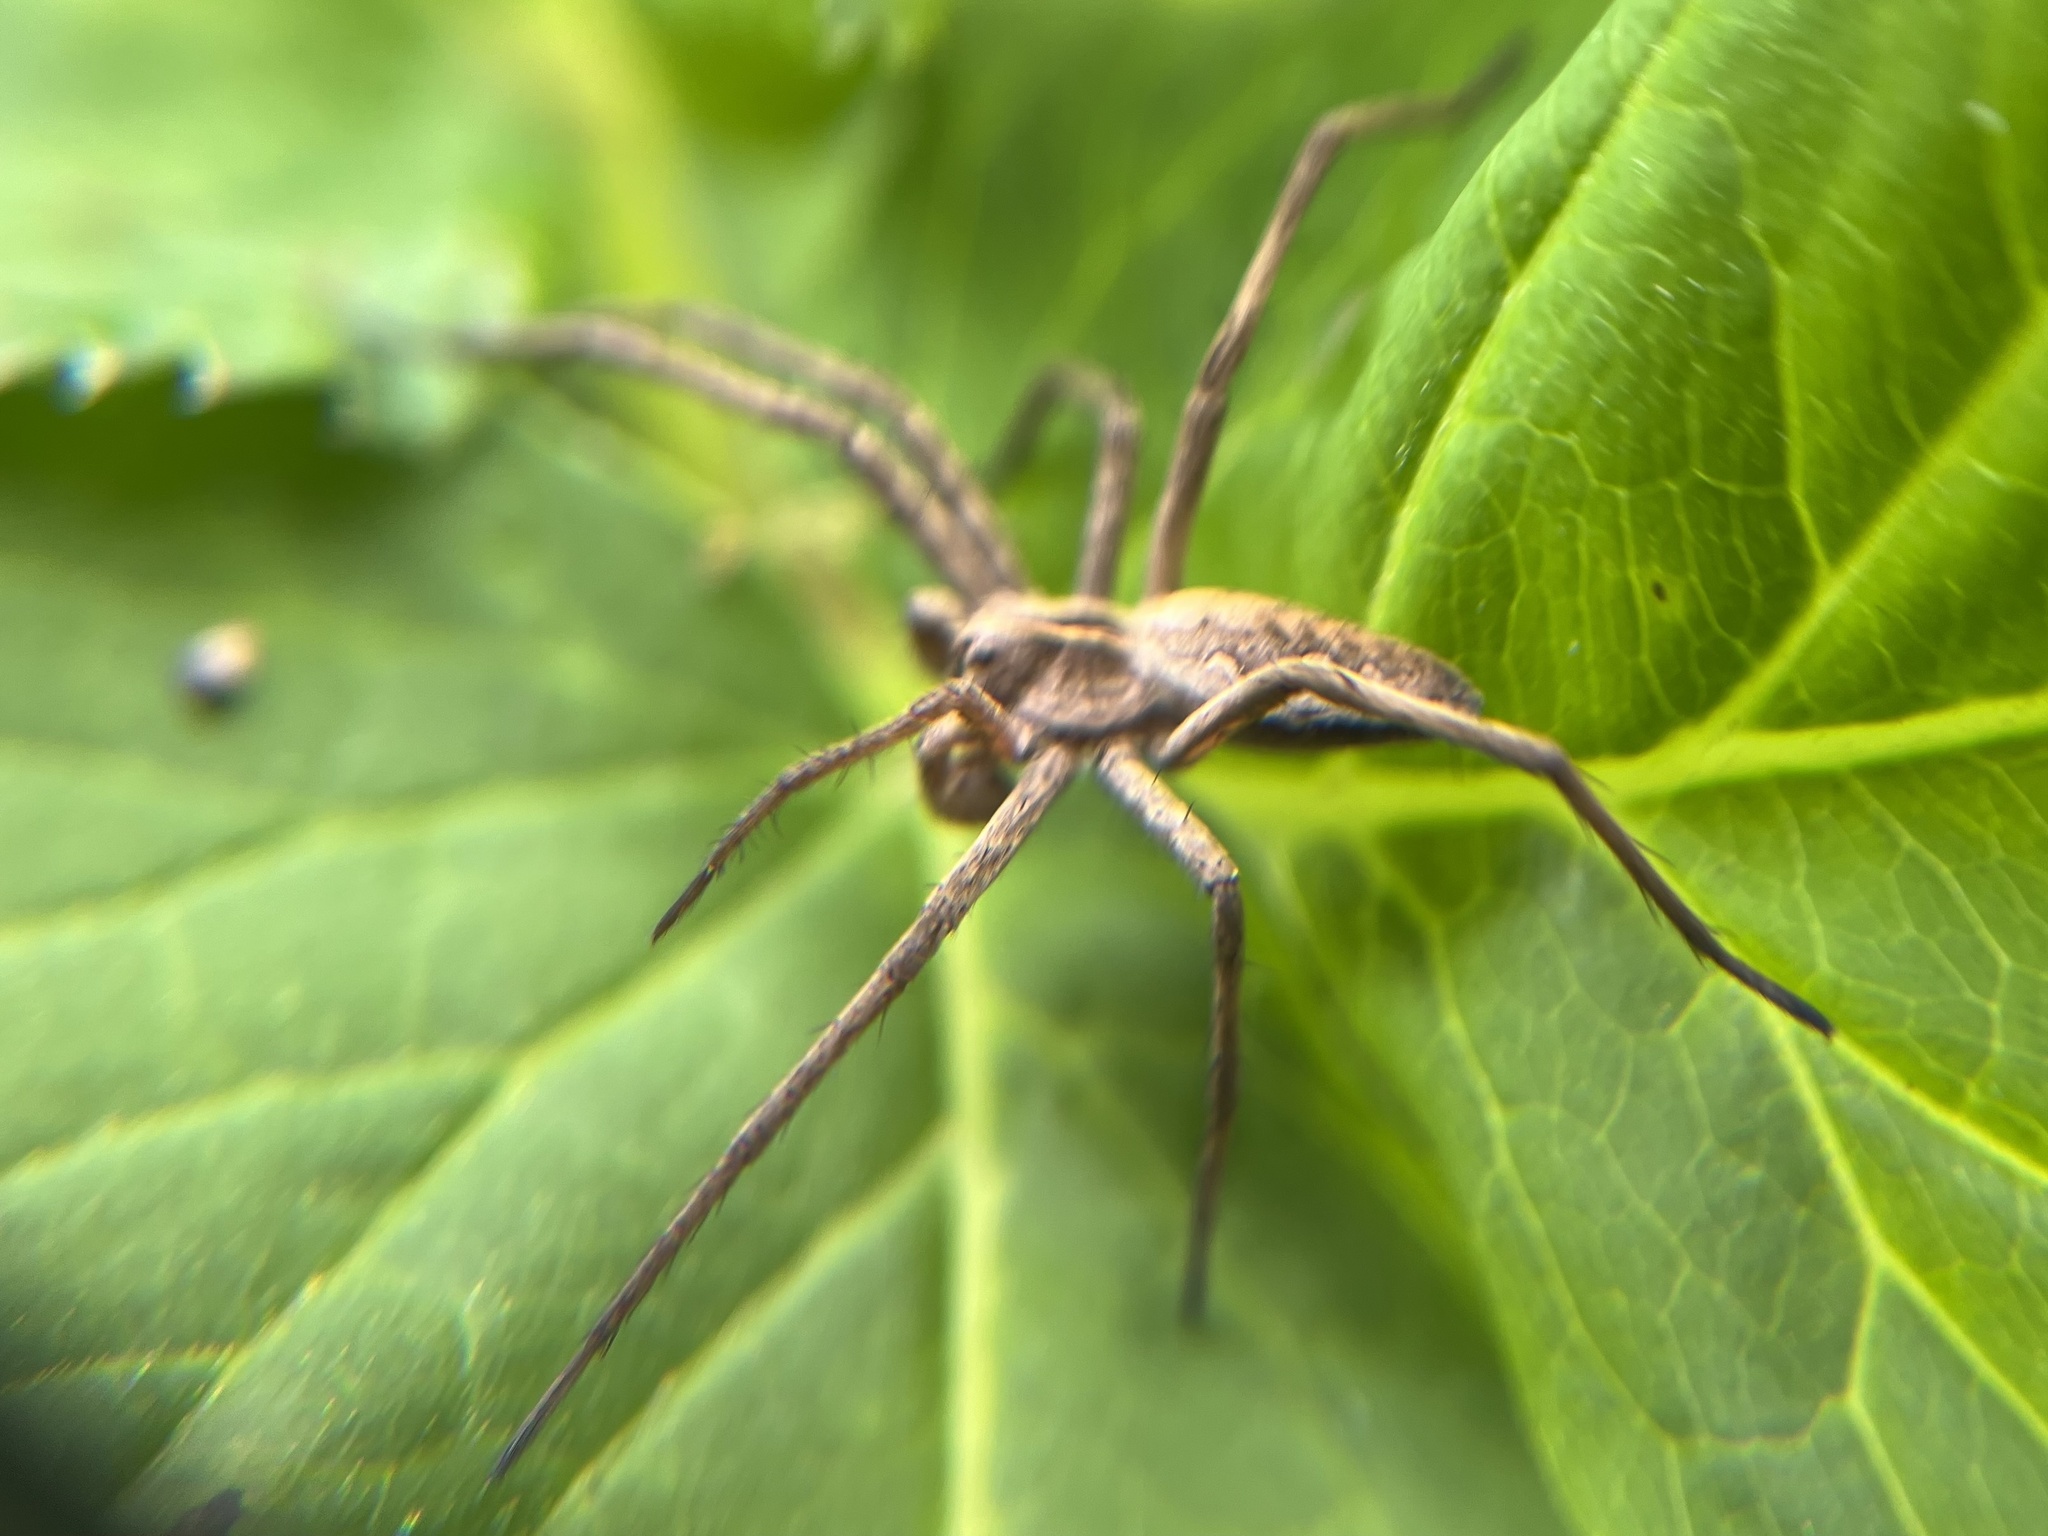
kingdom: Animalia
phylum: Arthropoda
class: Arachnida
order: Araneae
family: Pisauridae
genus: Pisaura
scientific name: Pisaura mirabilis
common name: Tent spider
